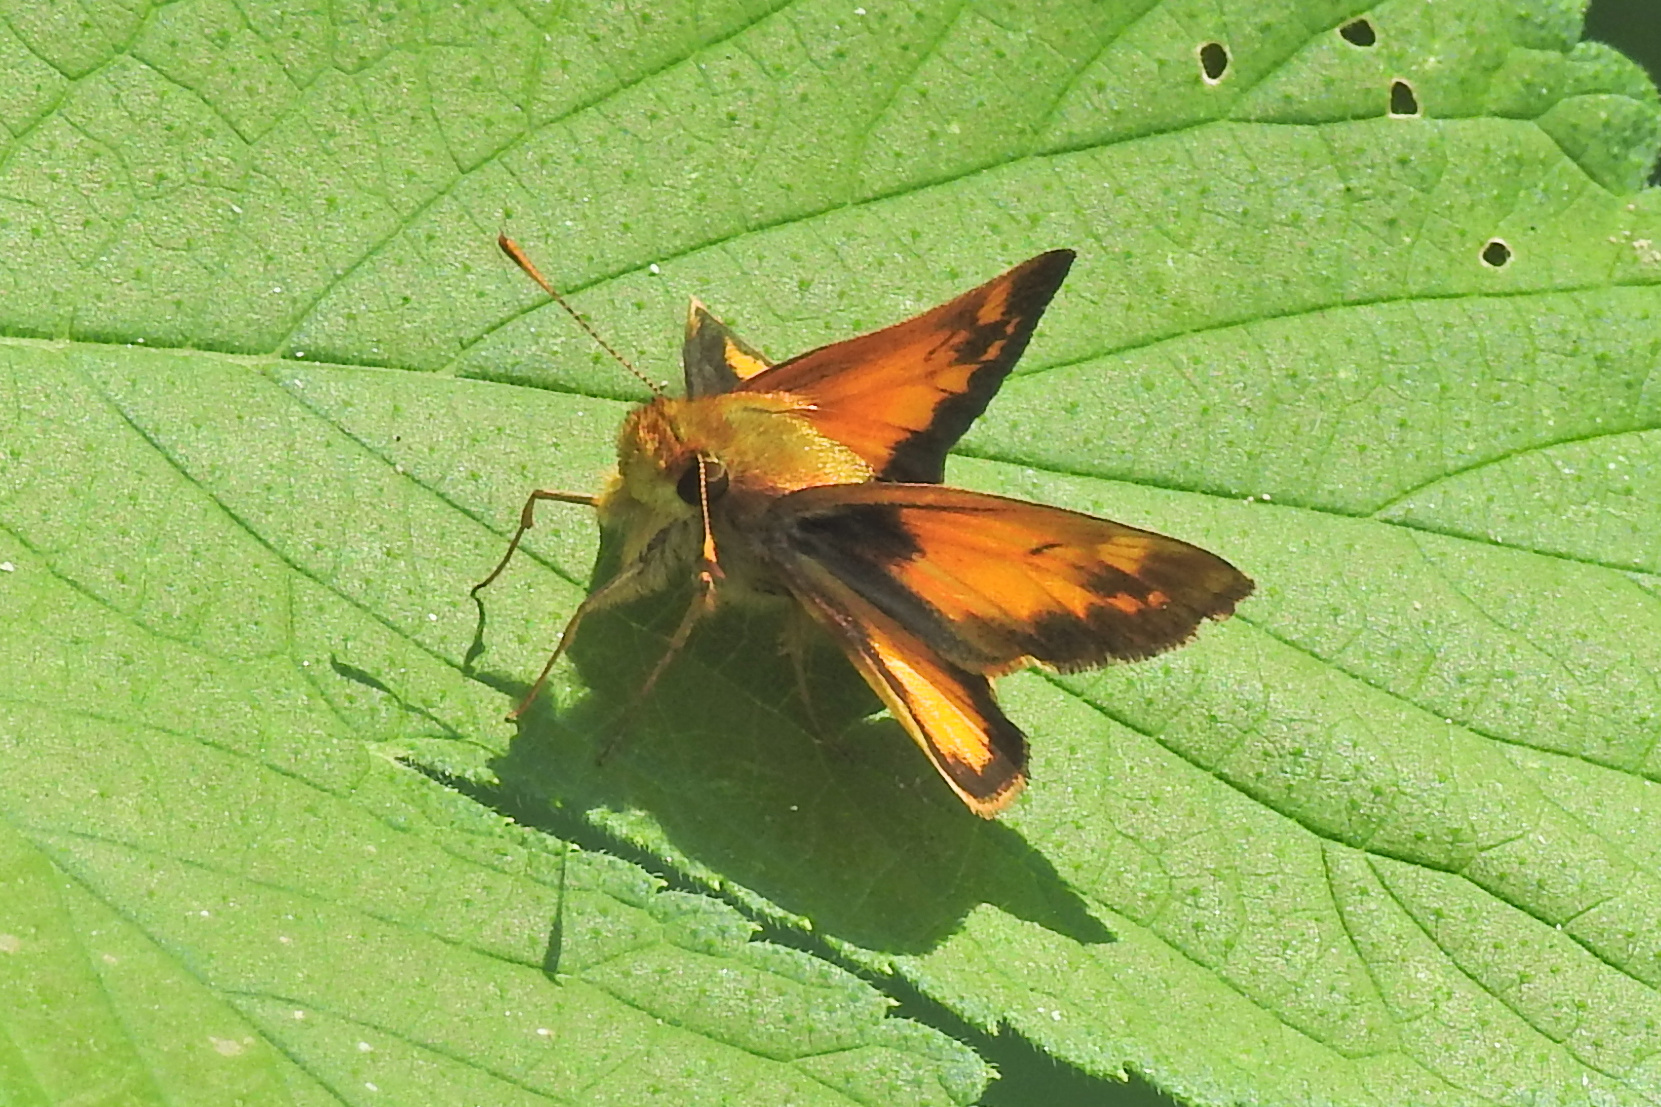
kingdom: Animalia
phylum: Arthropoda
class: Insecta
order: Lepidoptera
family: Hesperiidae
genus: Lon
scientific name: Lon zabulon
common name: Zabulon skipper
